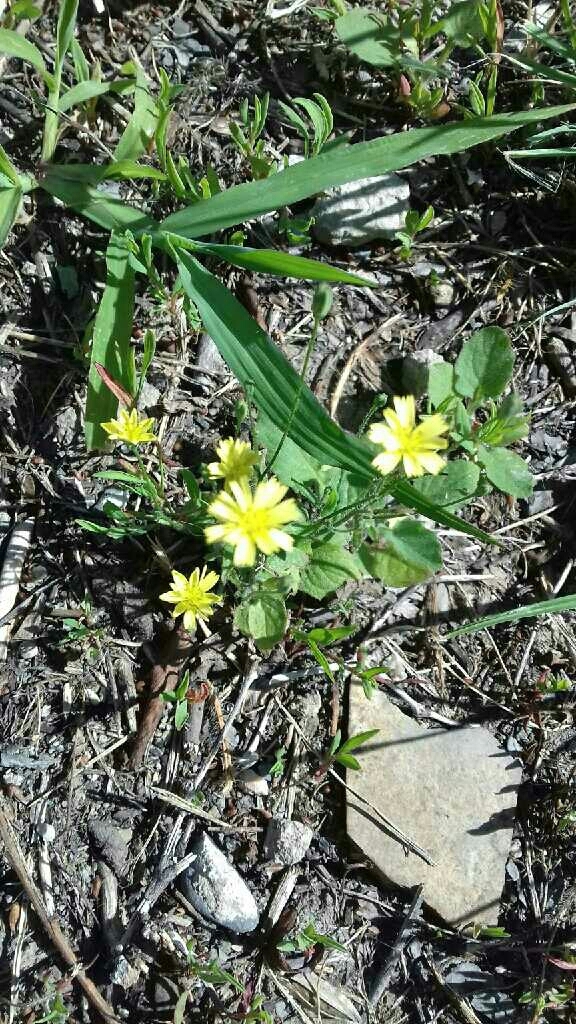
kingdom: Plantae
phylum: Tracheophyta
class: Magnoliopsida
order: Asterales
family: Asteraceae
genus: Lapsana
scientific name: Lapsana communis
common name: Nipplewort
